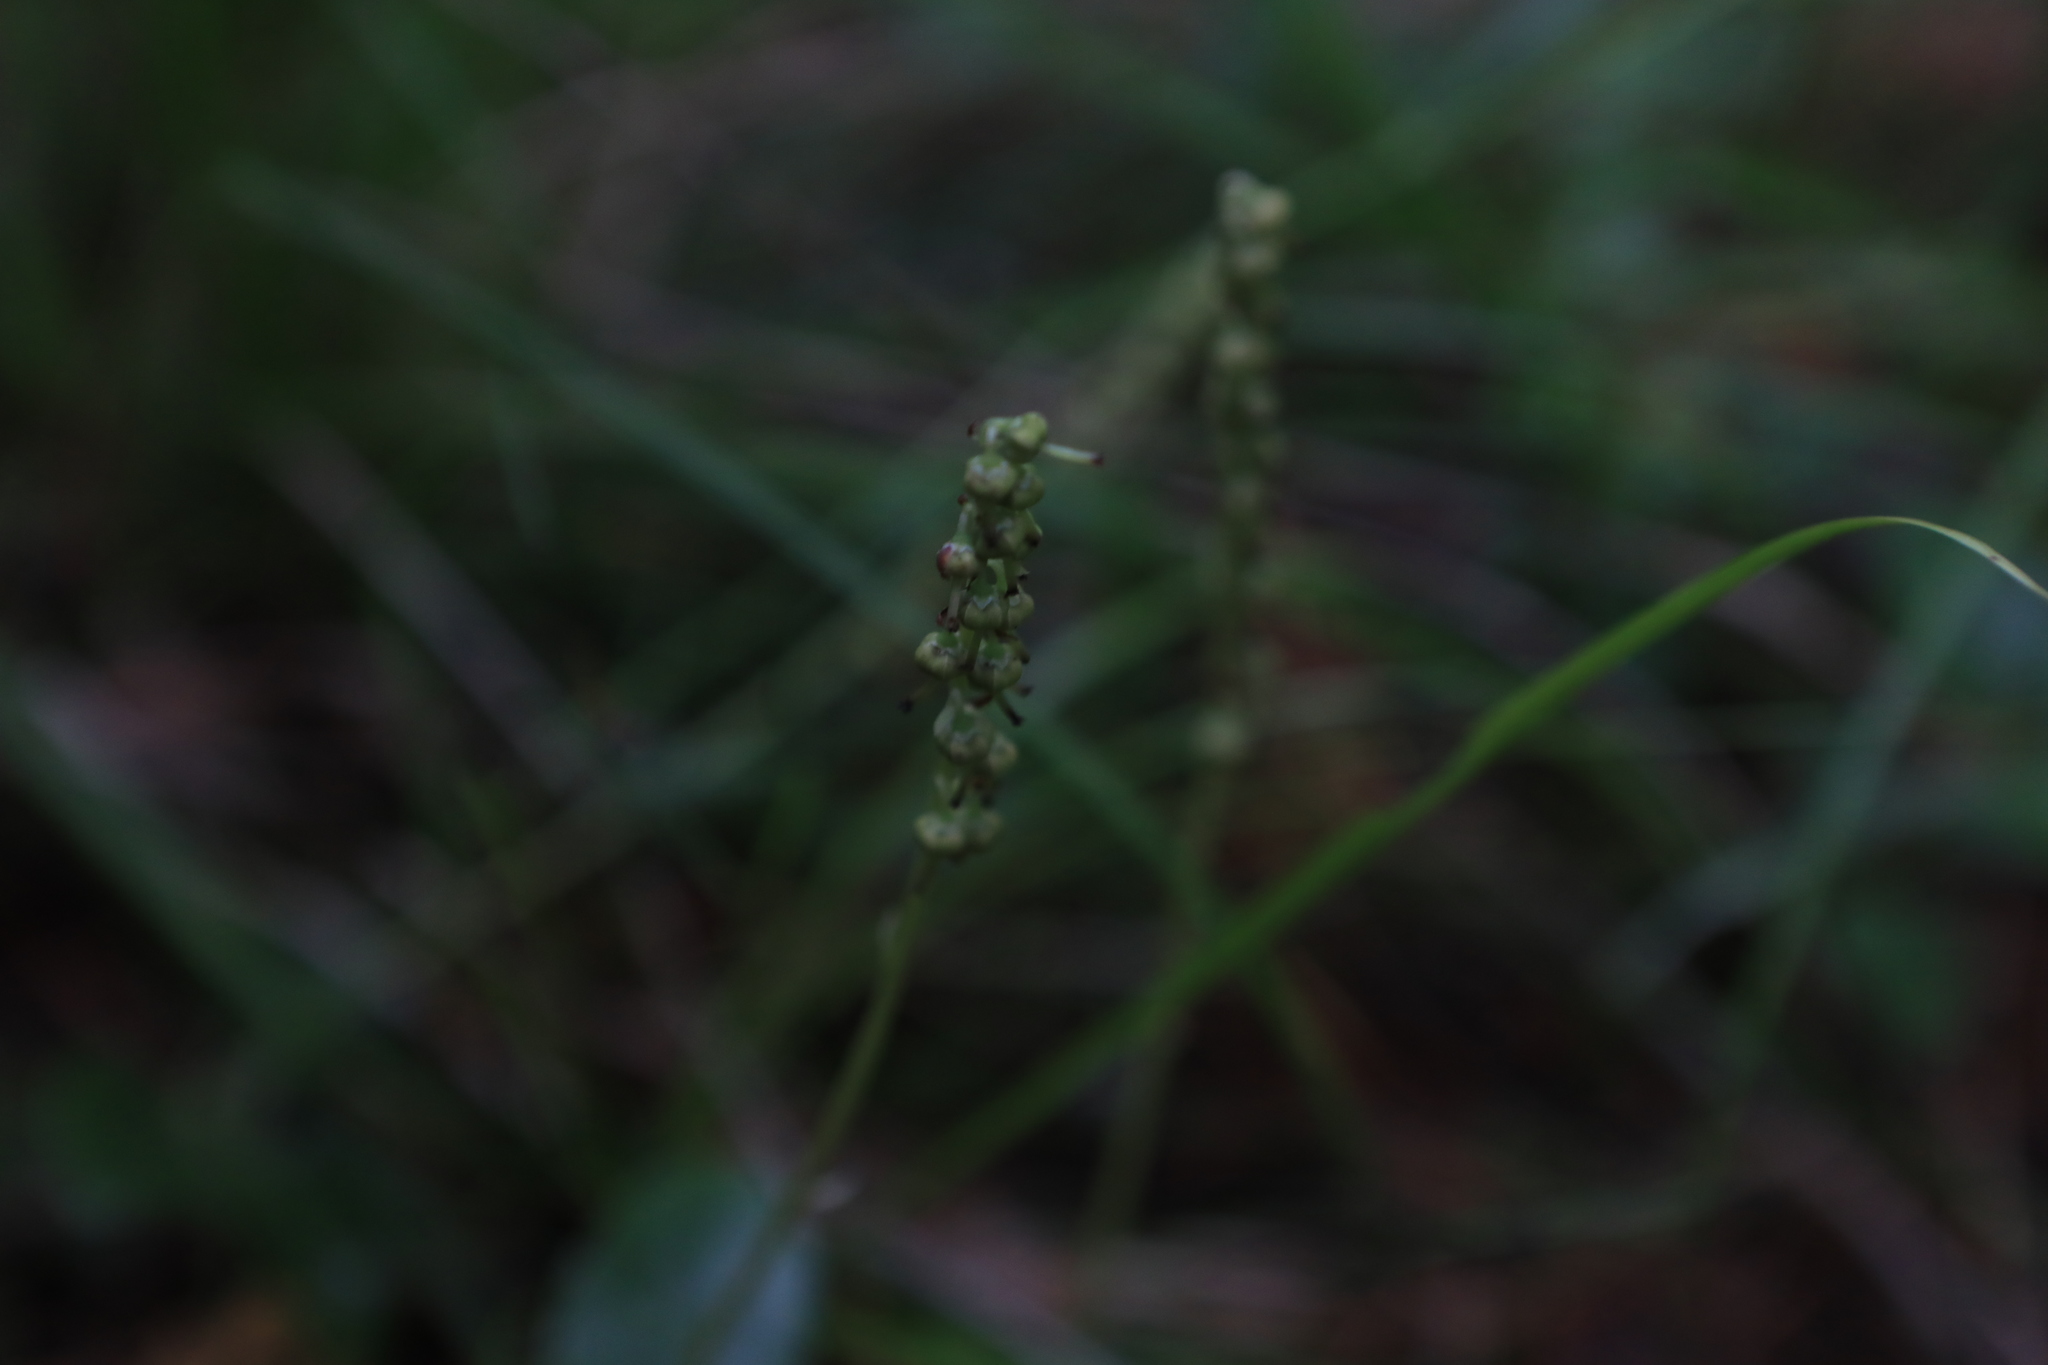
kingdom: Plantae
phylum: Tracheophyta
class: Magnoliopsida
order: Ericales
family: Ericaceae
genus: Orthilia
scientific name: Orthilia secunda
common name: One-sided orthilia
